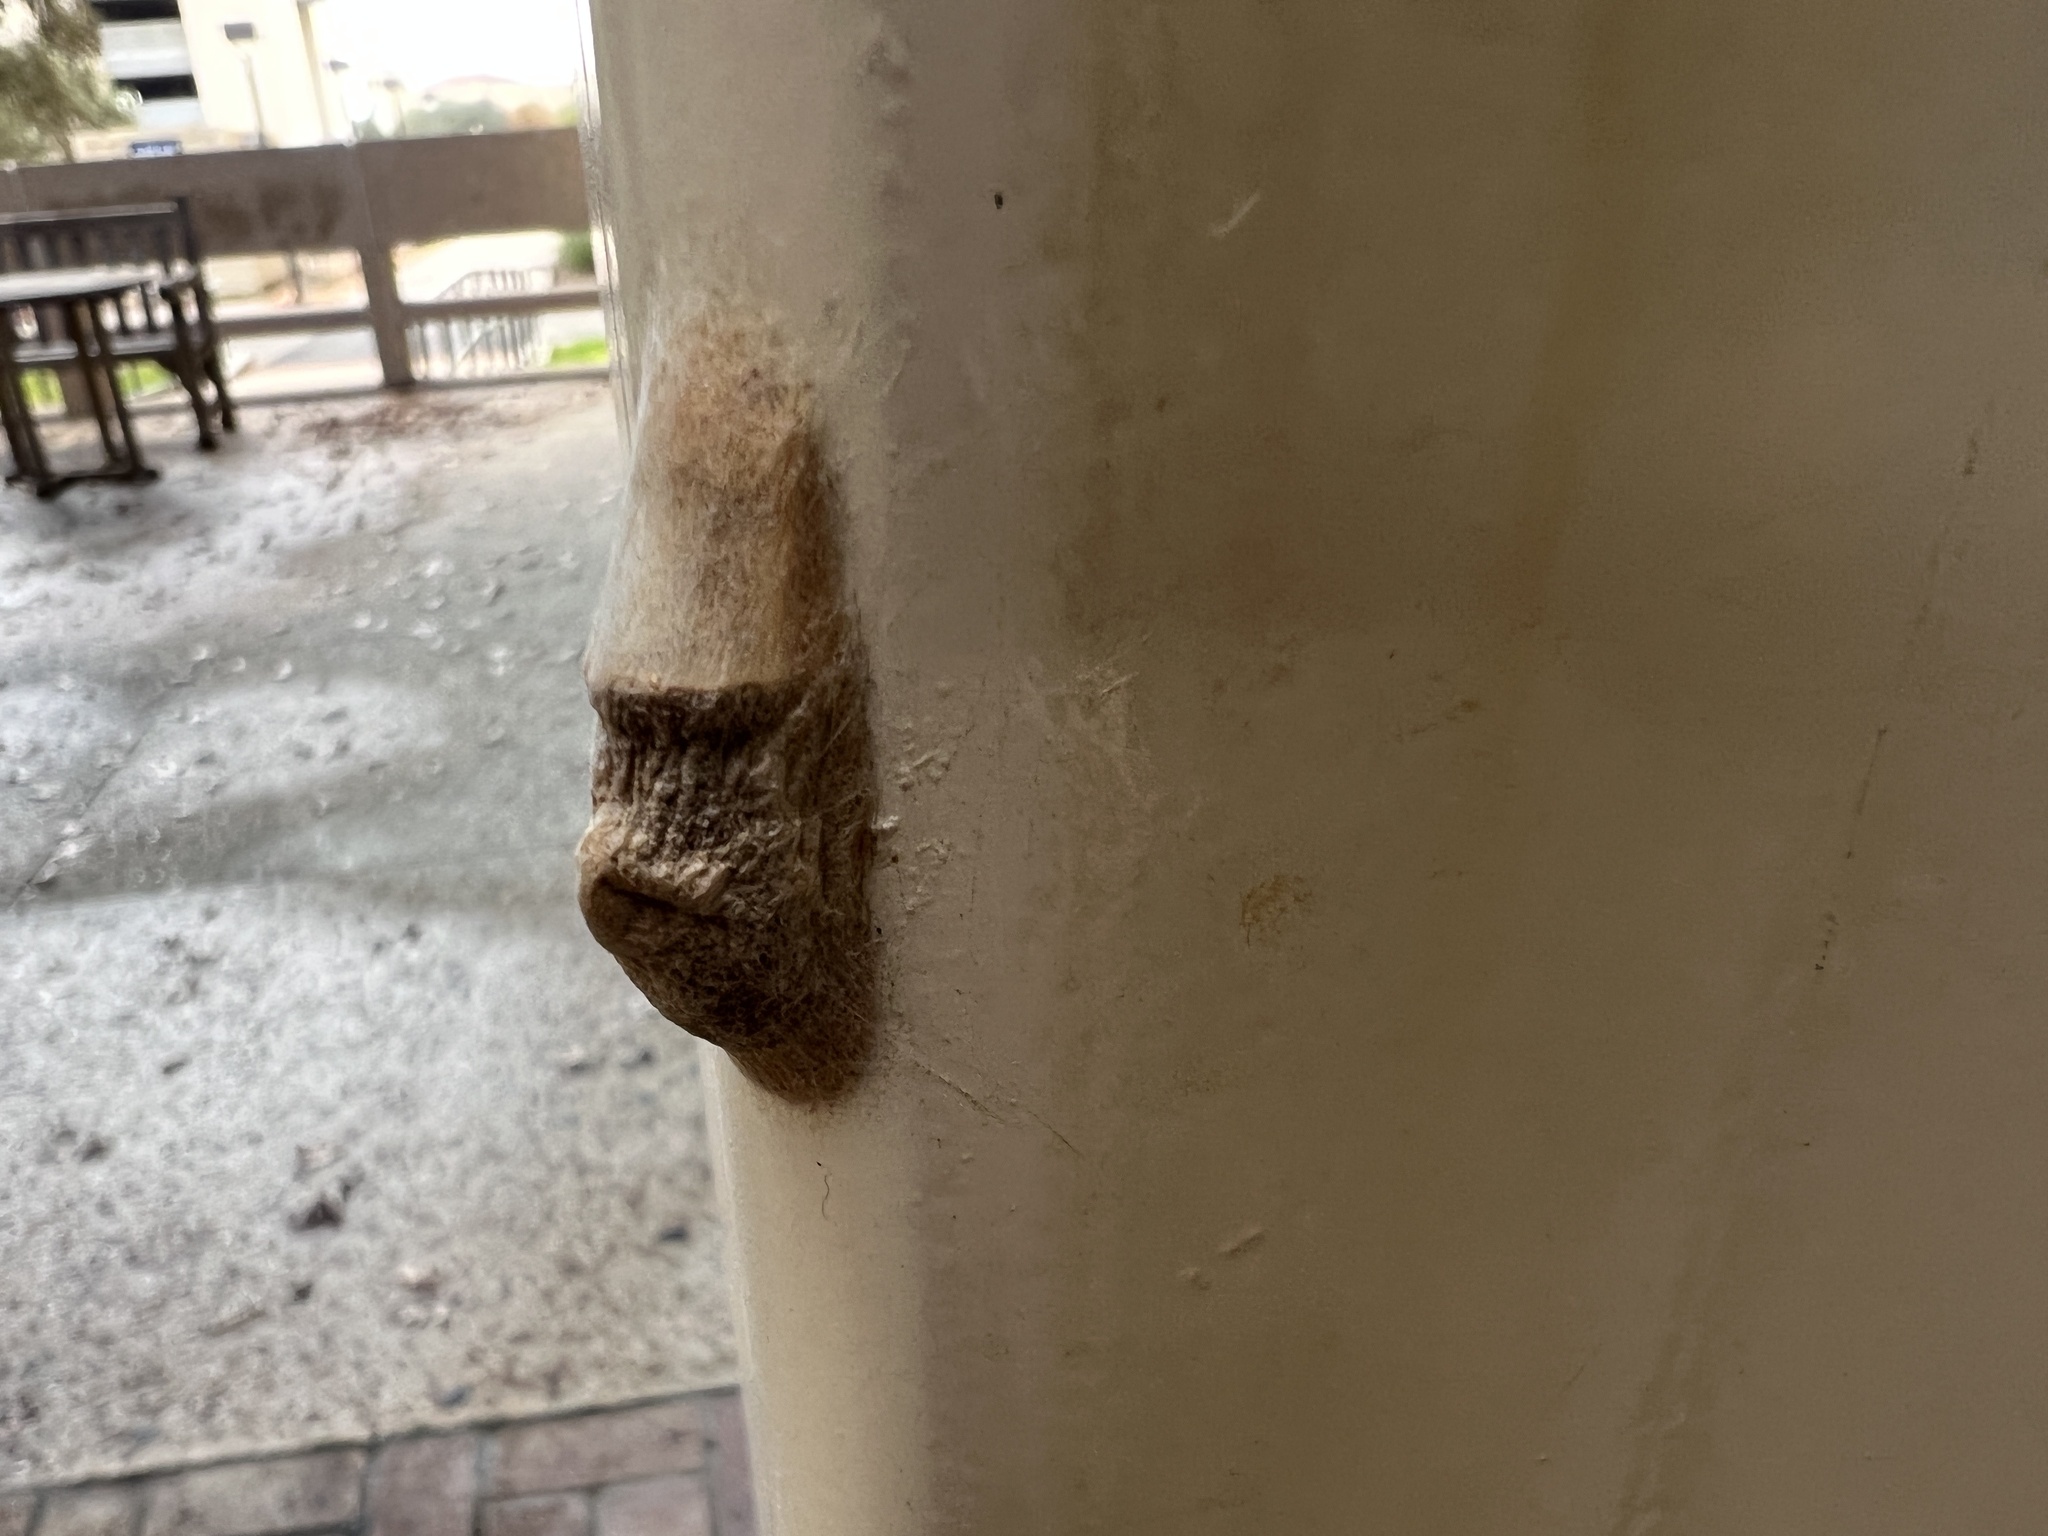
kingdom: Animalia
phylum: Arthropoda
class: Insecta
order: Lepidoptera
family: Megalopygidae
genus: Megalopyge
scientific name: Megalopyge opercularis
